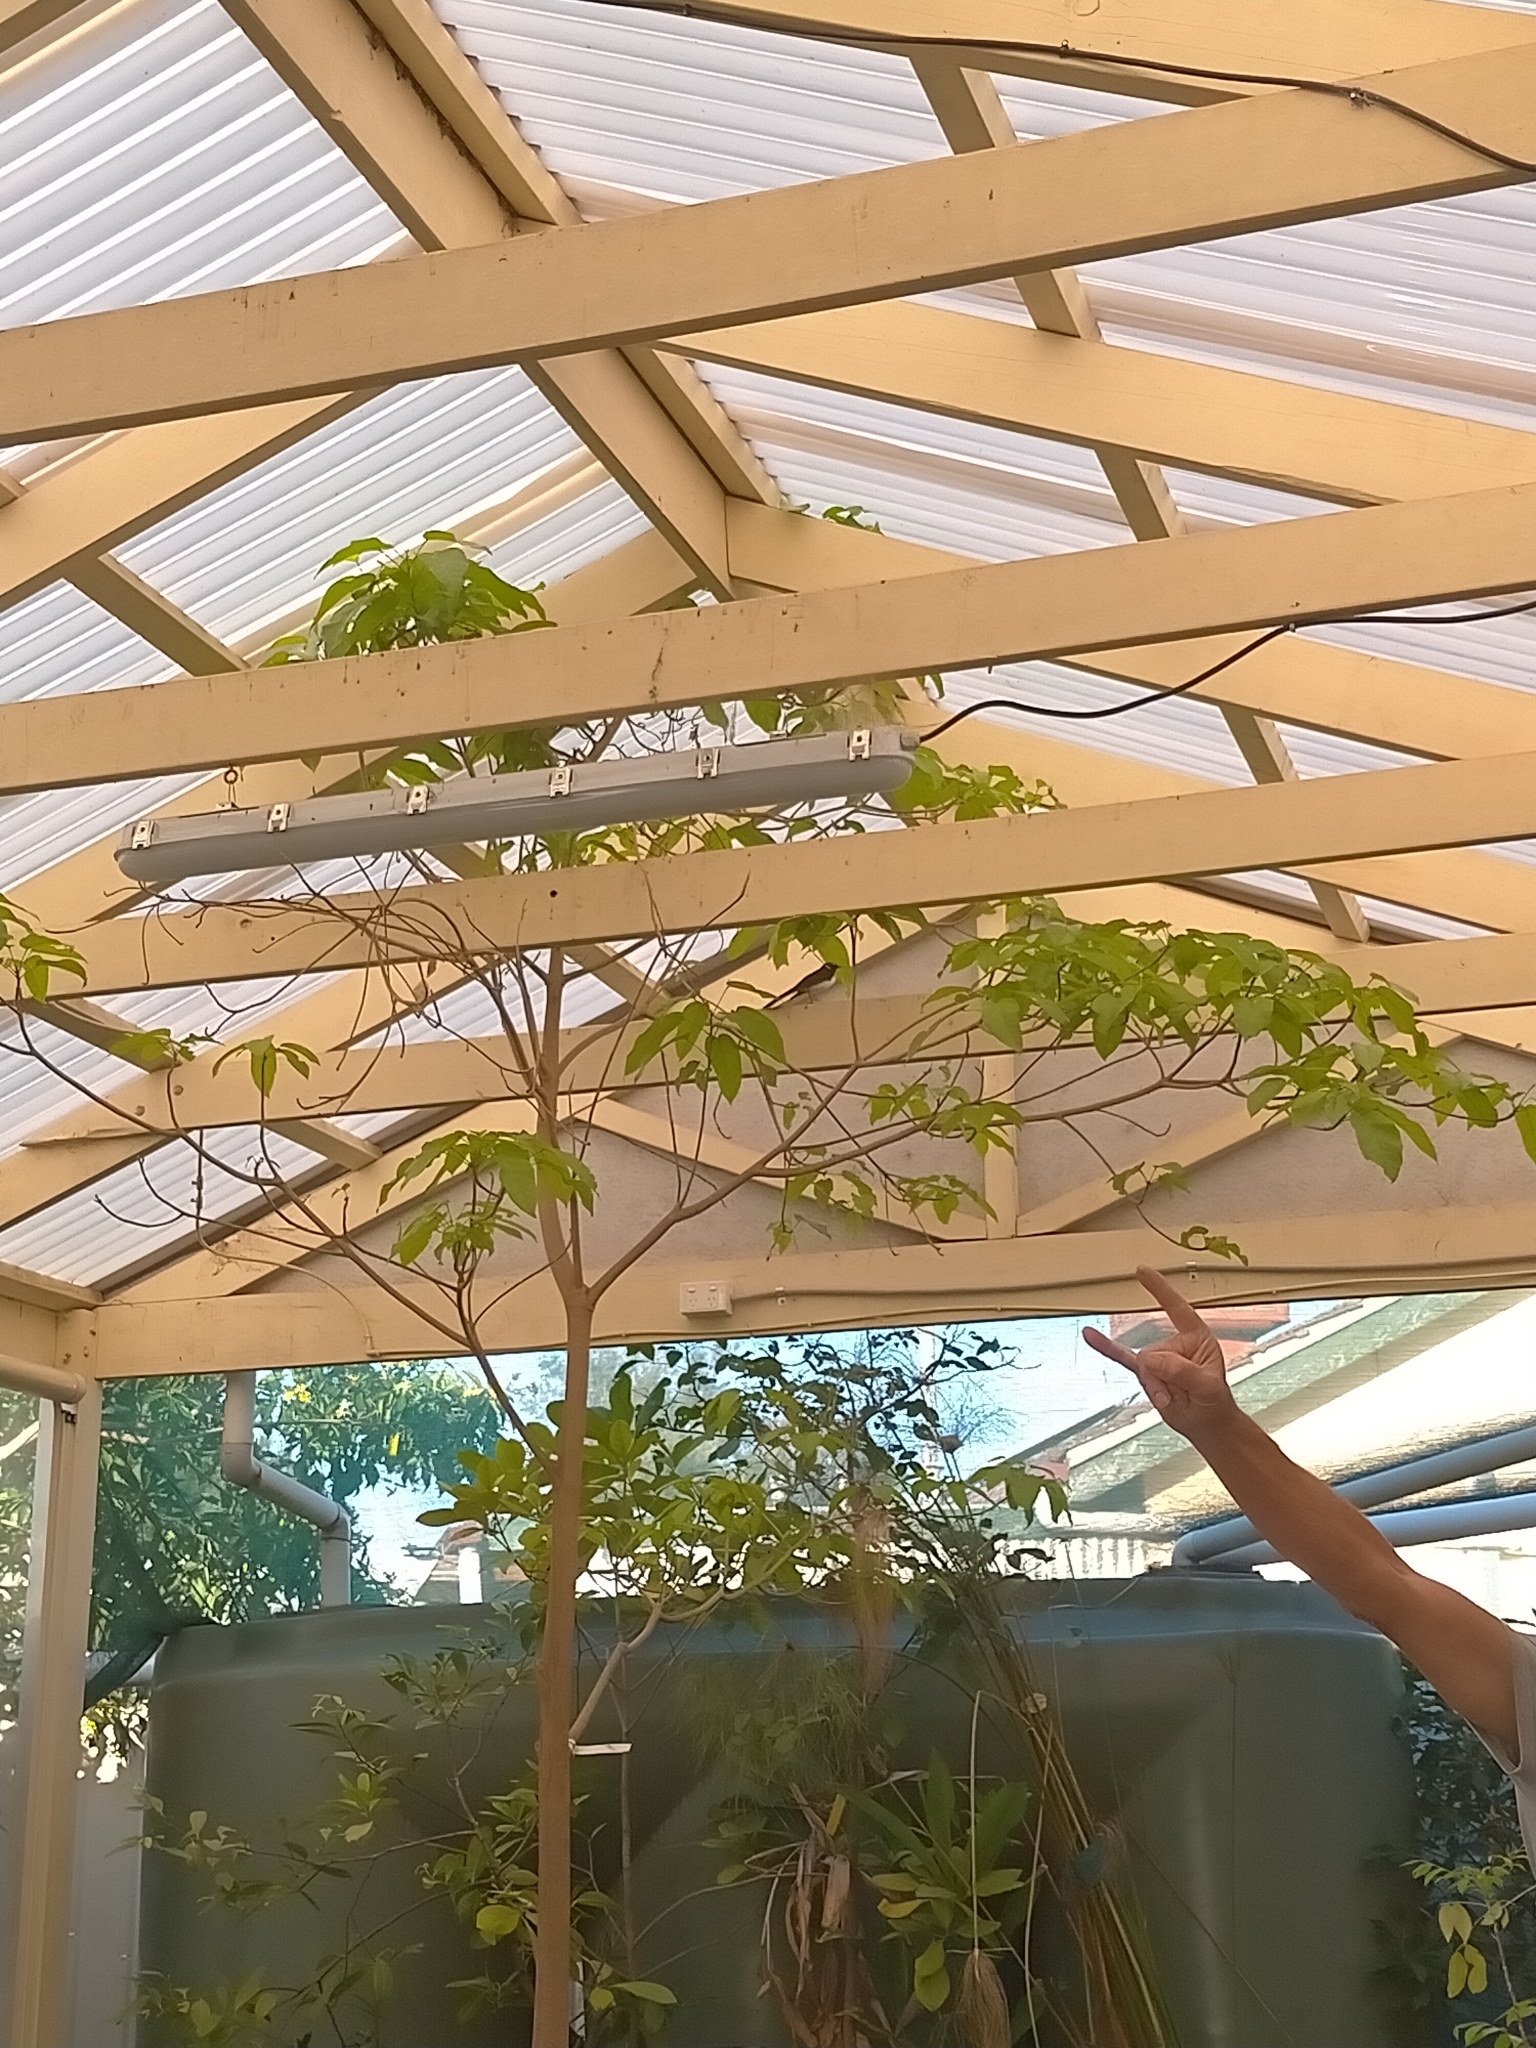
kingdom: Animalia
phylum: Chordata
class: Aves
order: Passeriformes
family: Rhipiduridae
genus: Rhipidura
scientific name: Rhipidura leucophrys
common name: Willie wagtail
